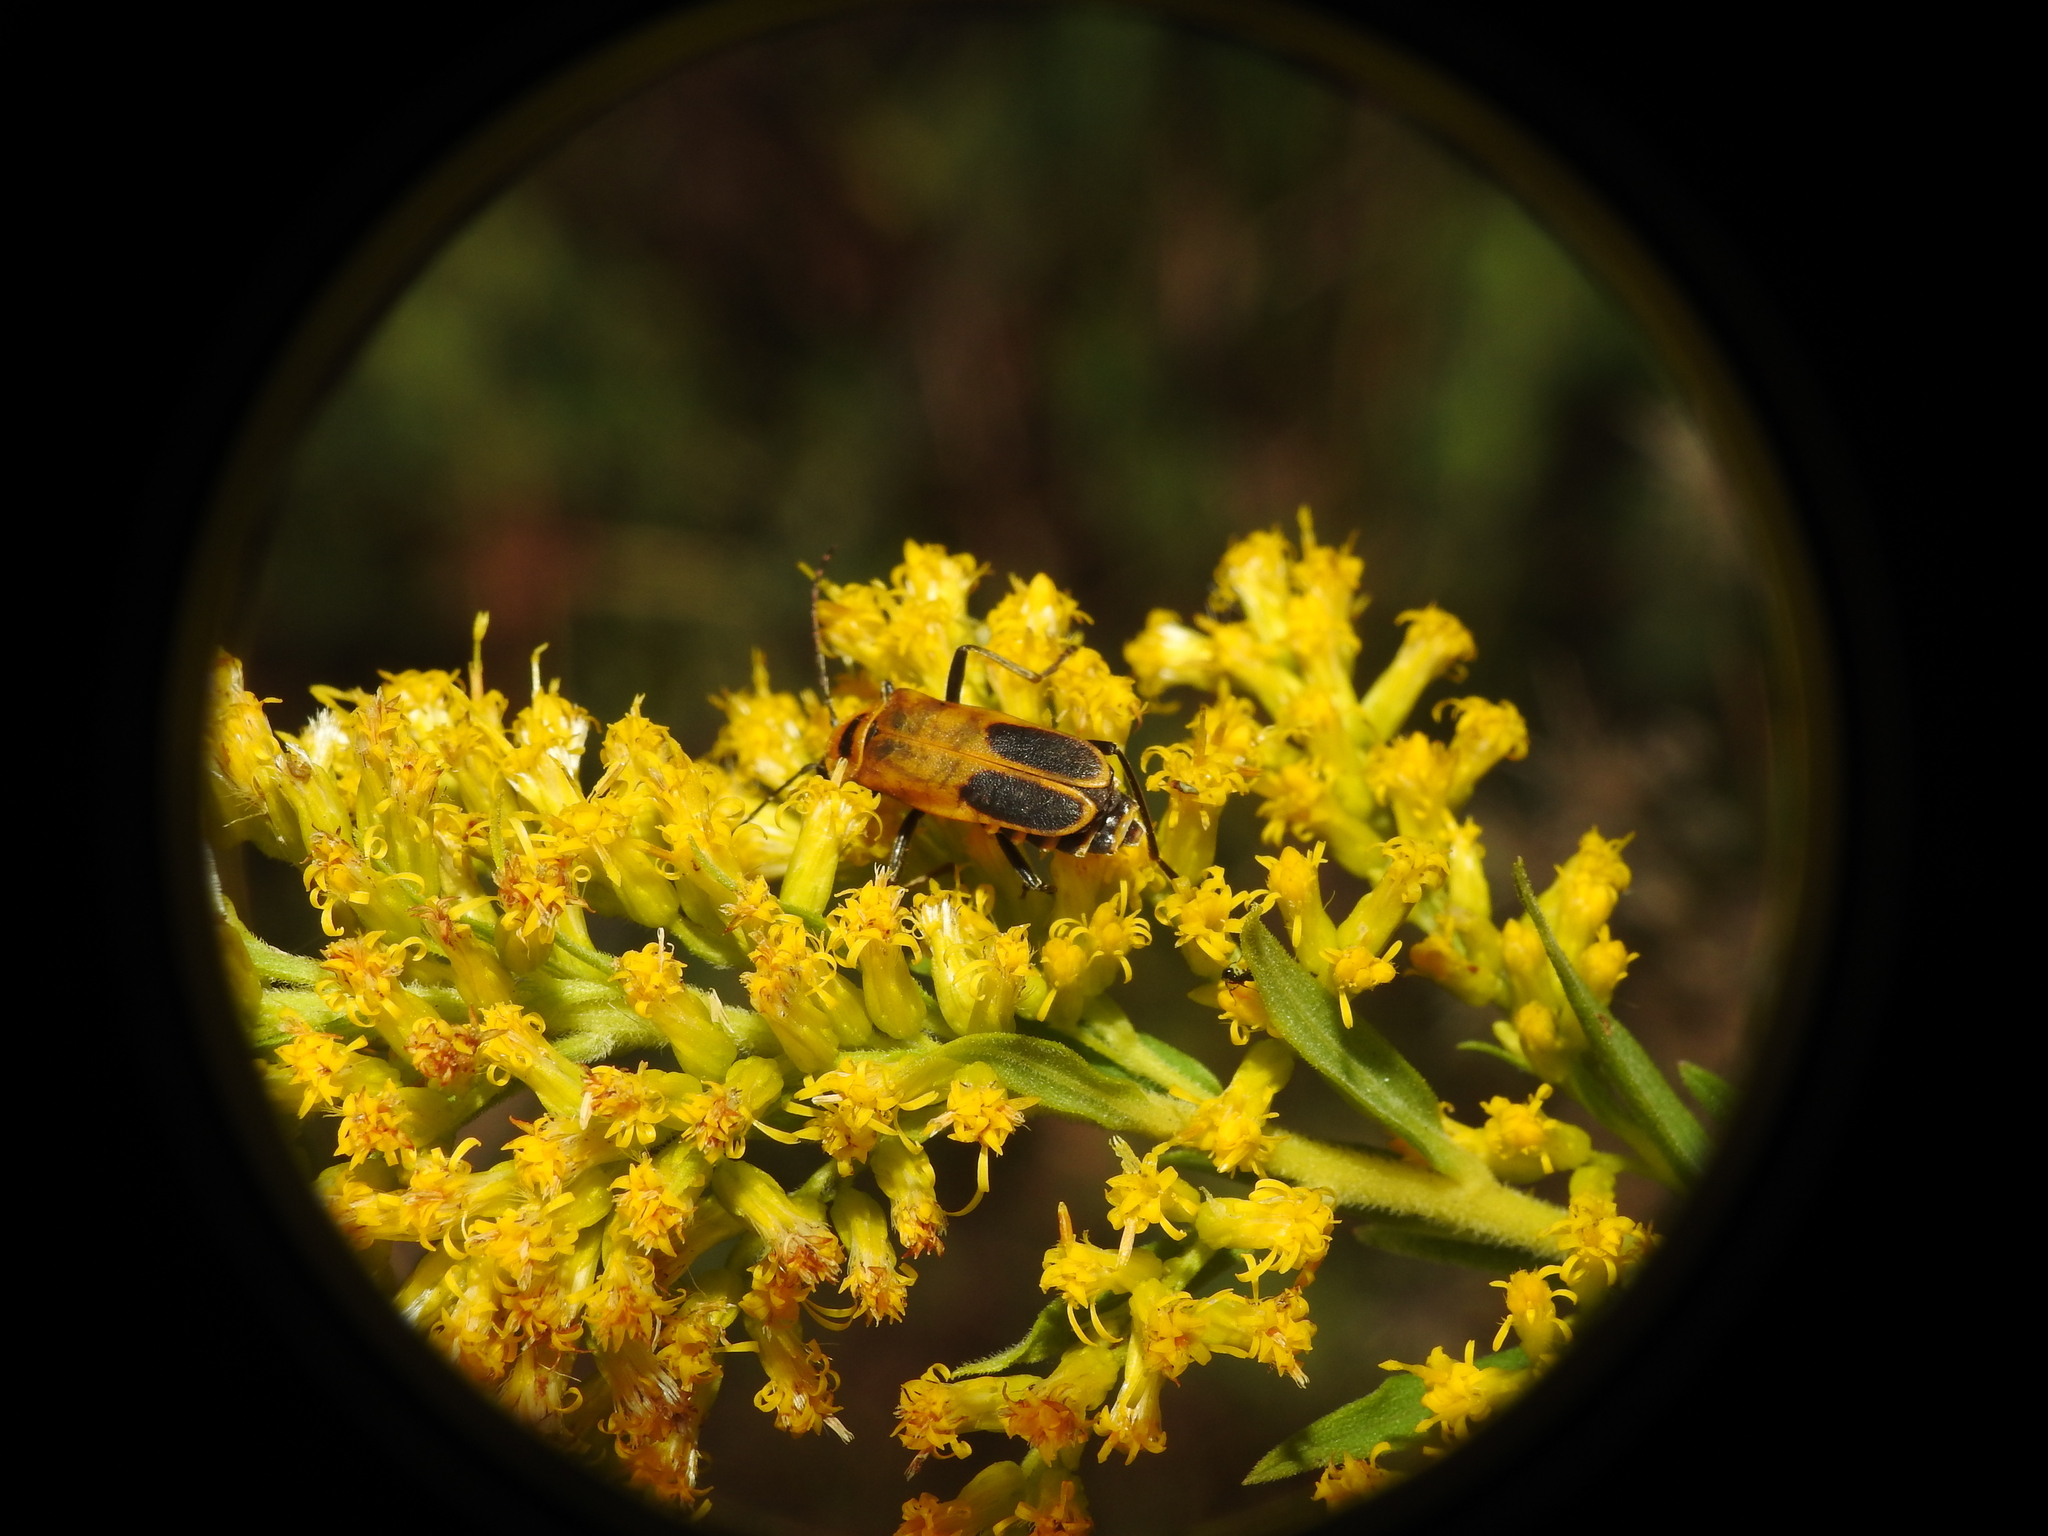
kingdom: Animalia
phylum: Arthropoda
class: Insecta
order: Coleoptera
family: Cantharidae
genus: Chauliognathus
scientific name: Chauliognathus pensylvanicus
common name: Goldenrod soldier beetle
